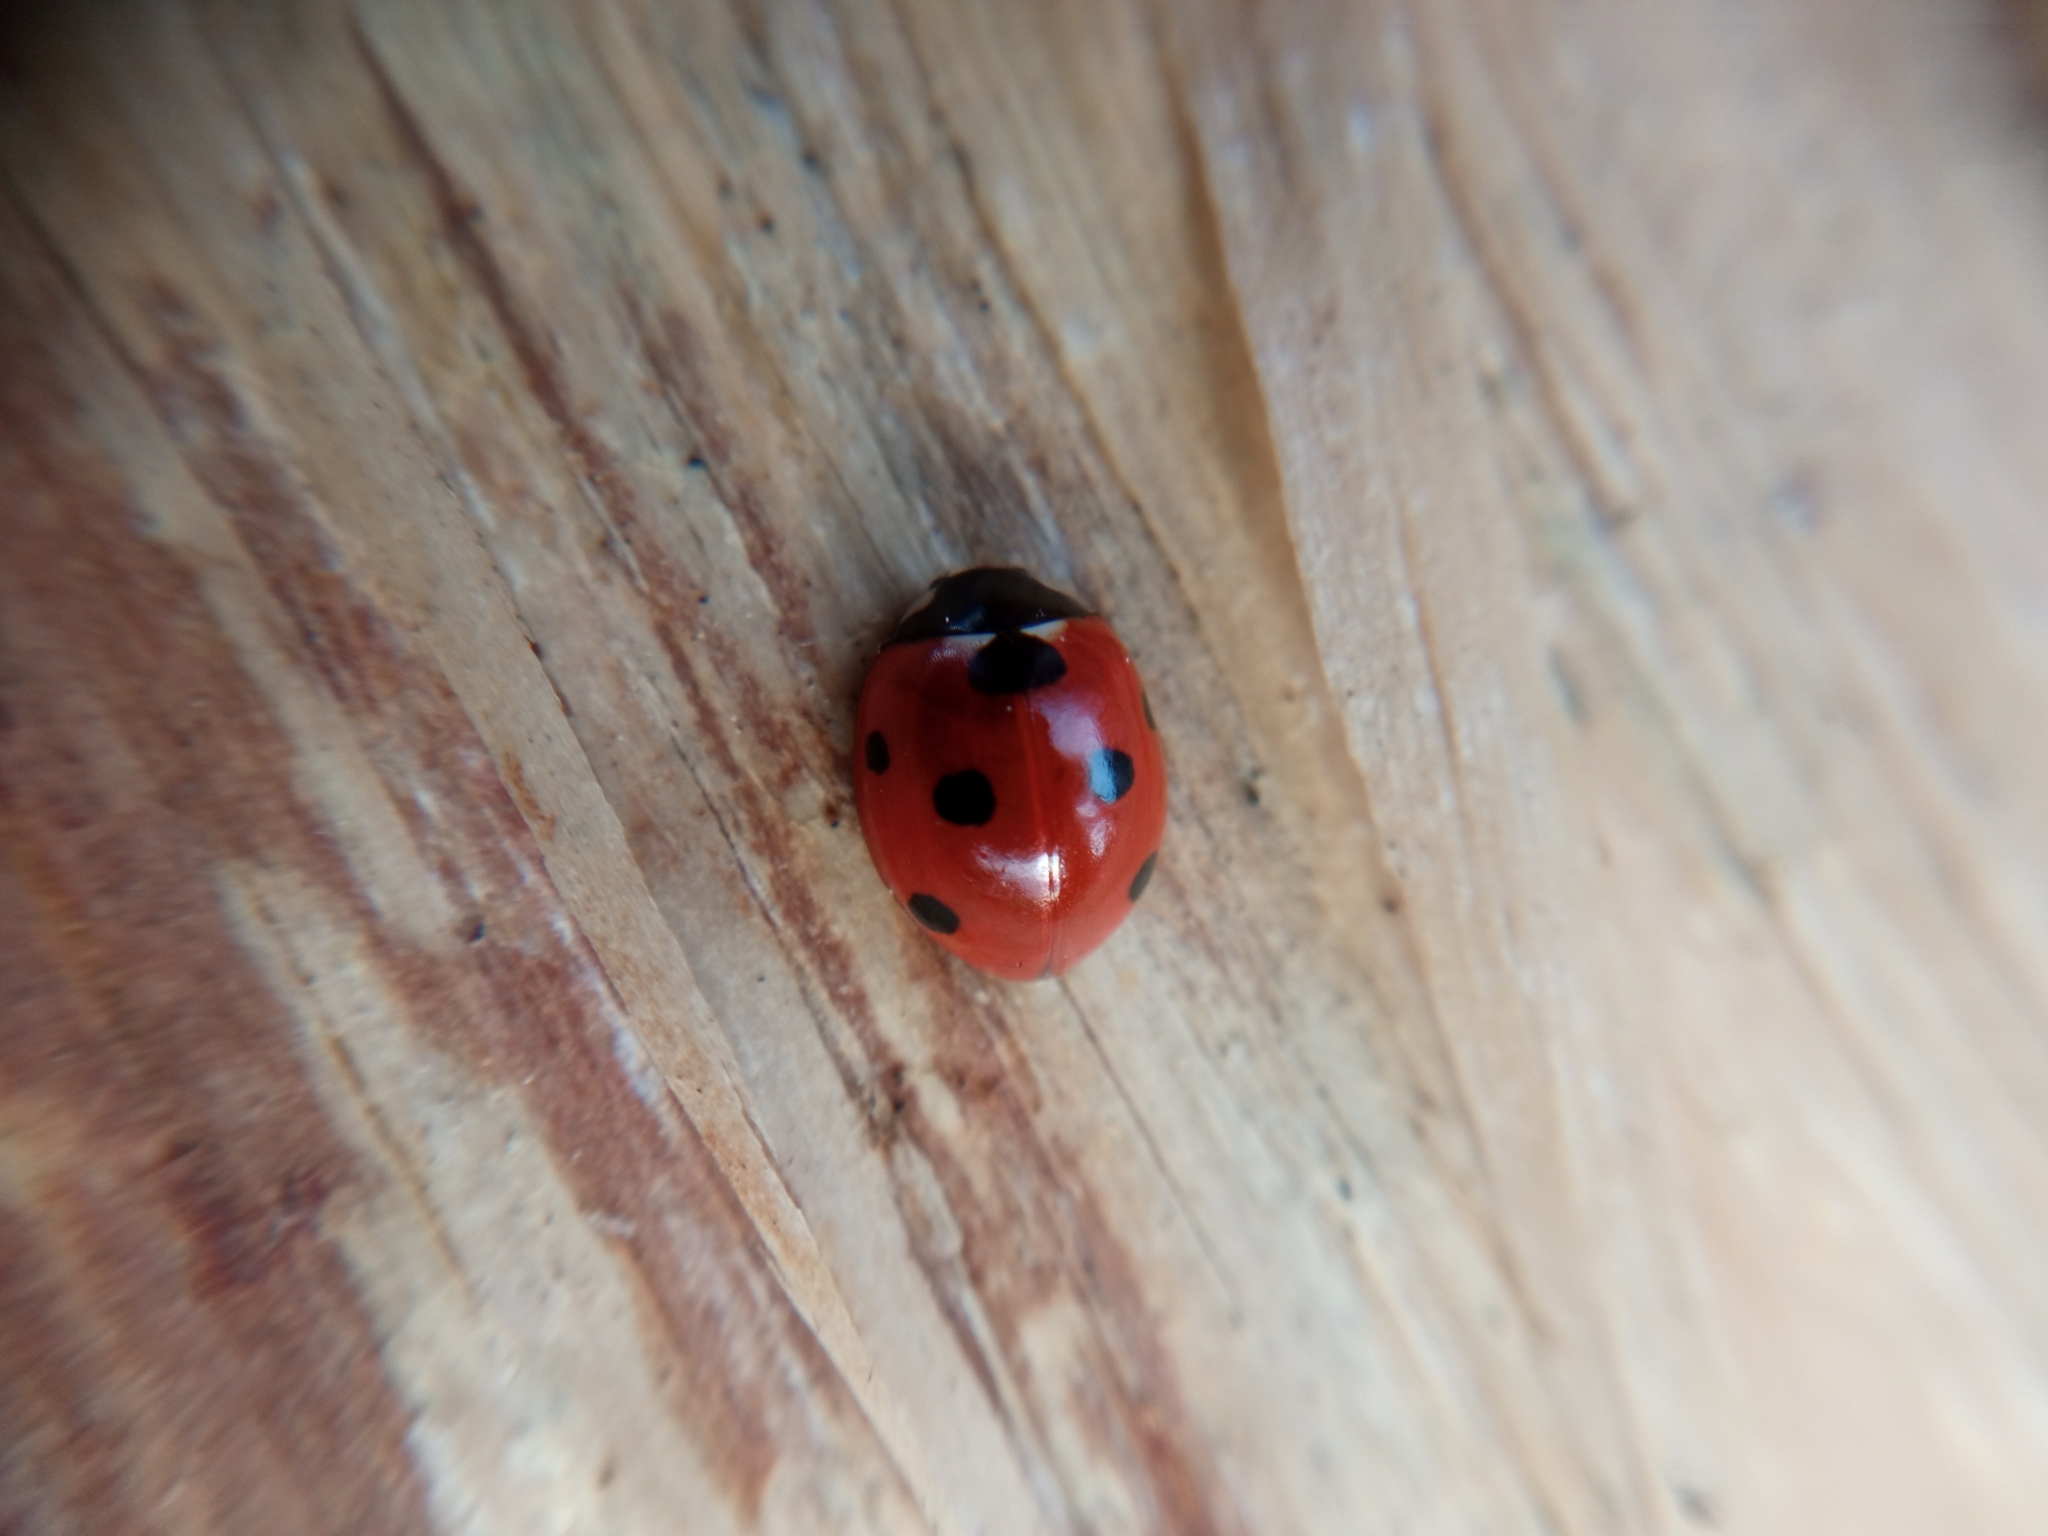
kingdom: Animalia
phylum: Arthropoda
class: Insecta
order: Coleoptera
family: Coccinellidae
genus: Coccinella
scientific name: Coccinella septempunctata
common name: Sevenspotted lady beetle
